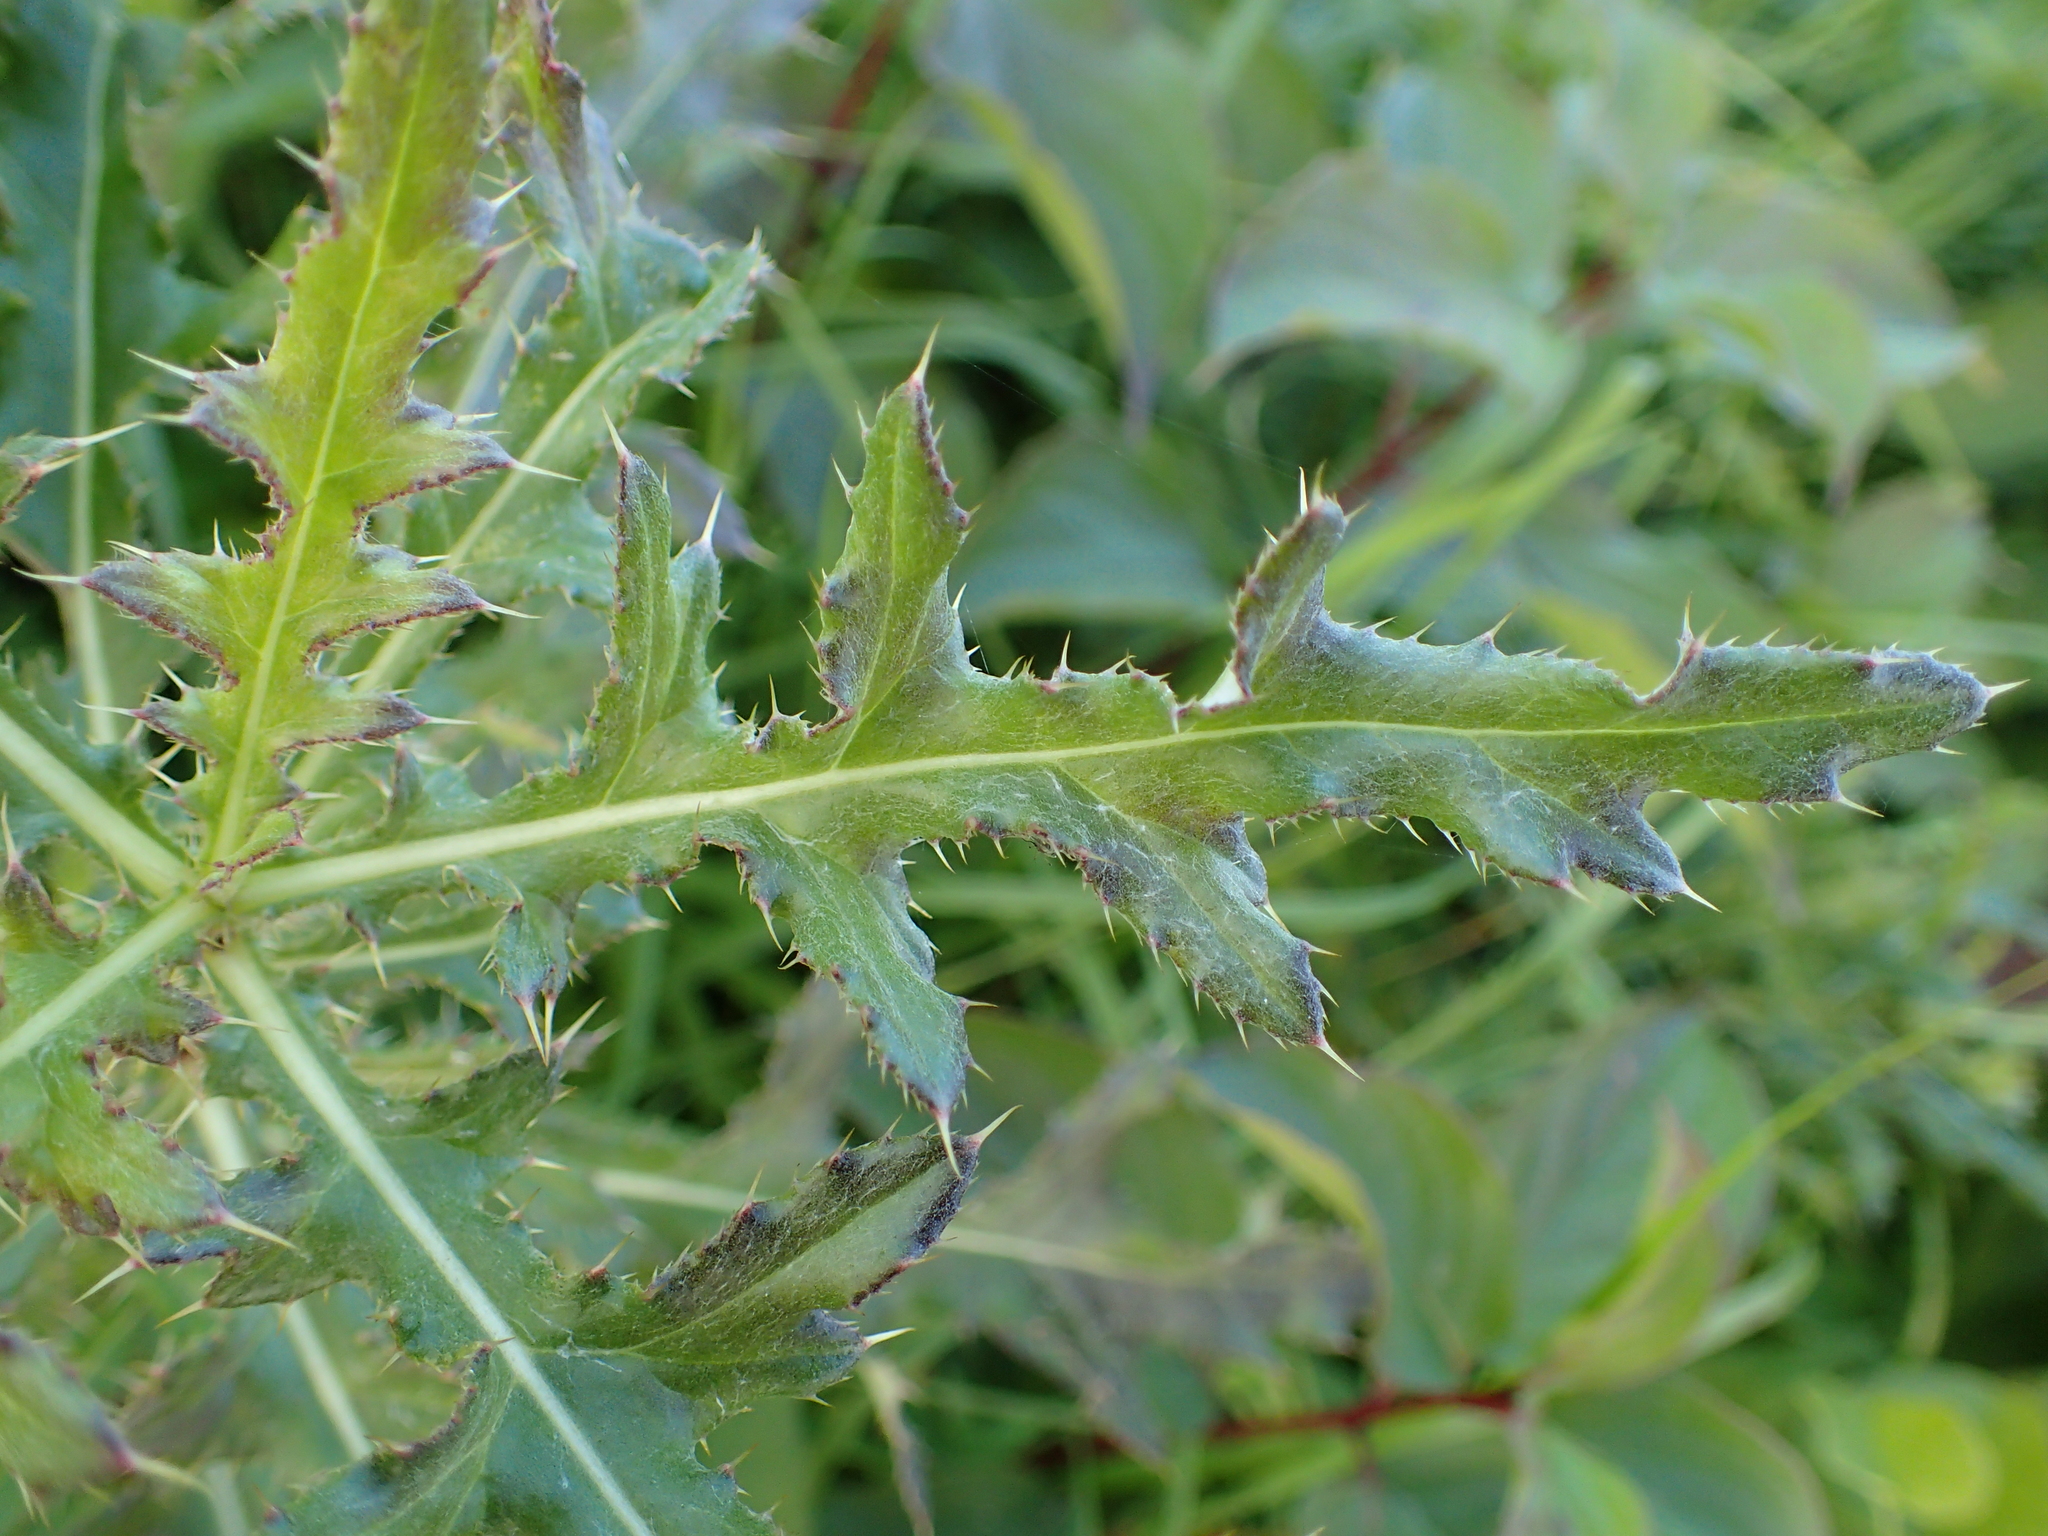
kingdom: Plantae
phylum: Tracheophyta
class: Magnoliopsida
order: Asterales
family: Asteraceae
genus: Cirsium
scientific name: Cirsium arvense
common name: Creeping thistle
